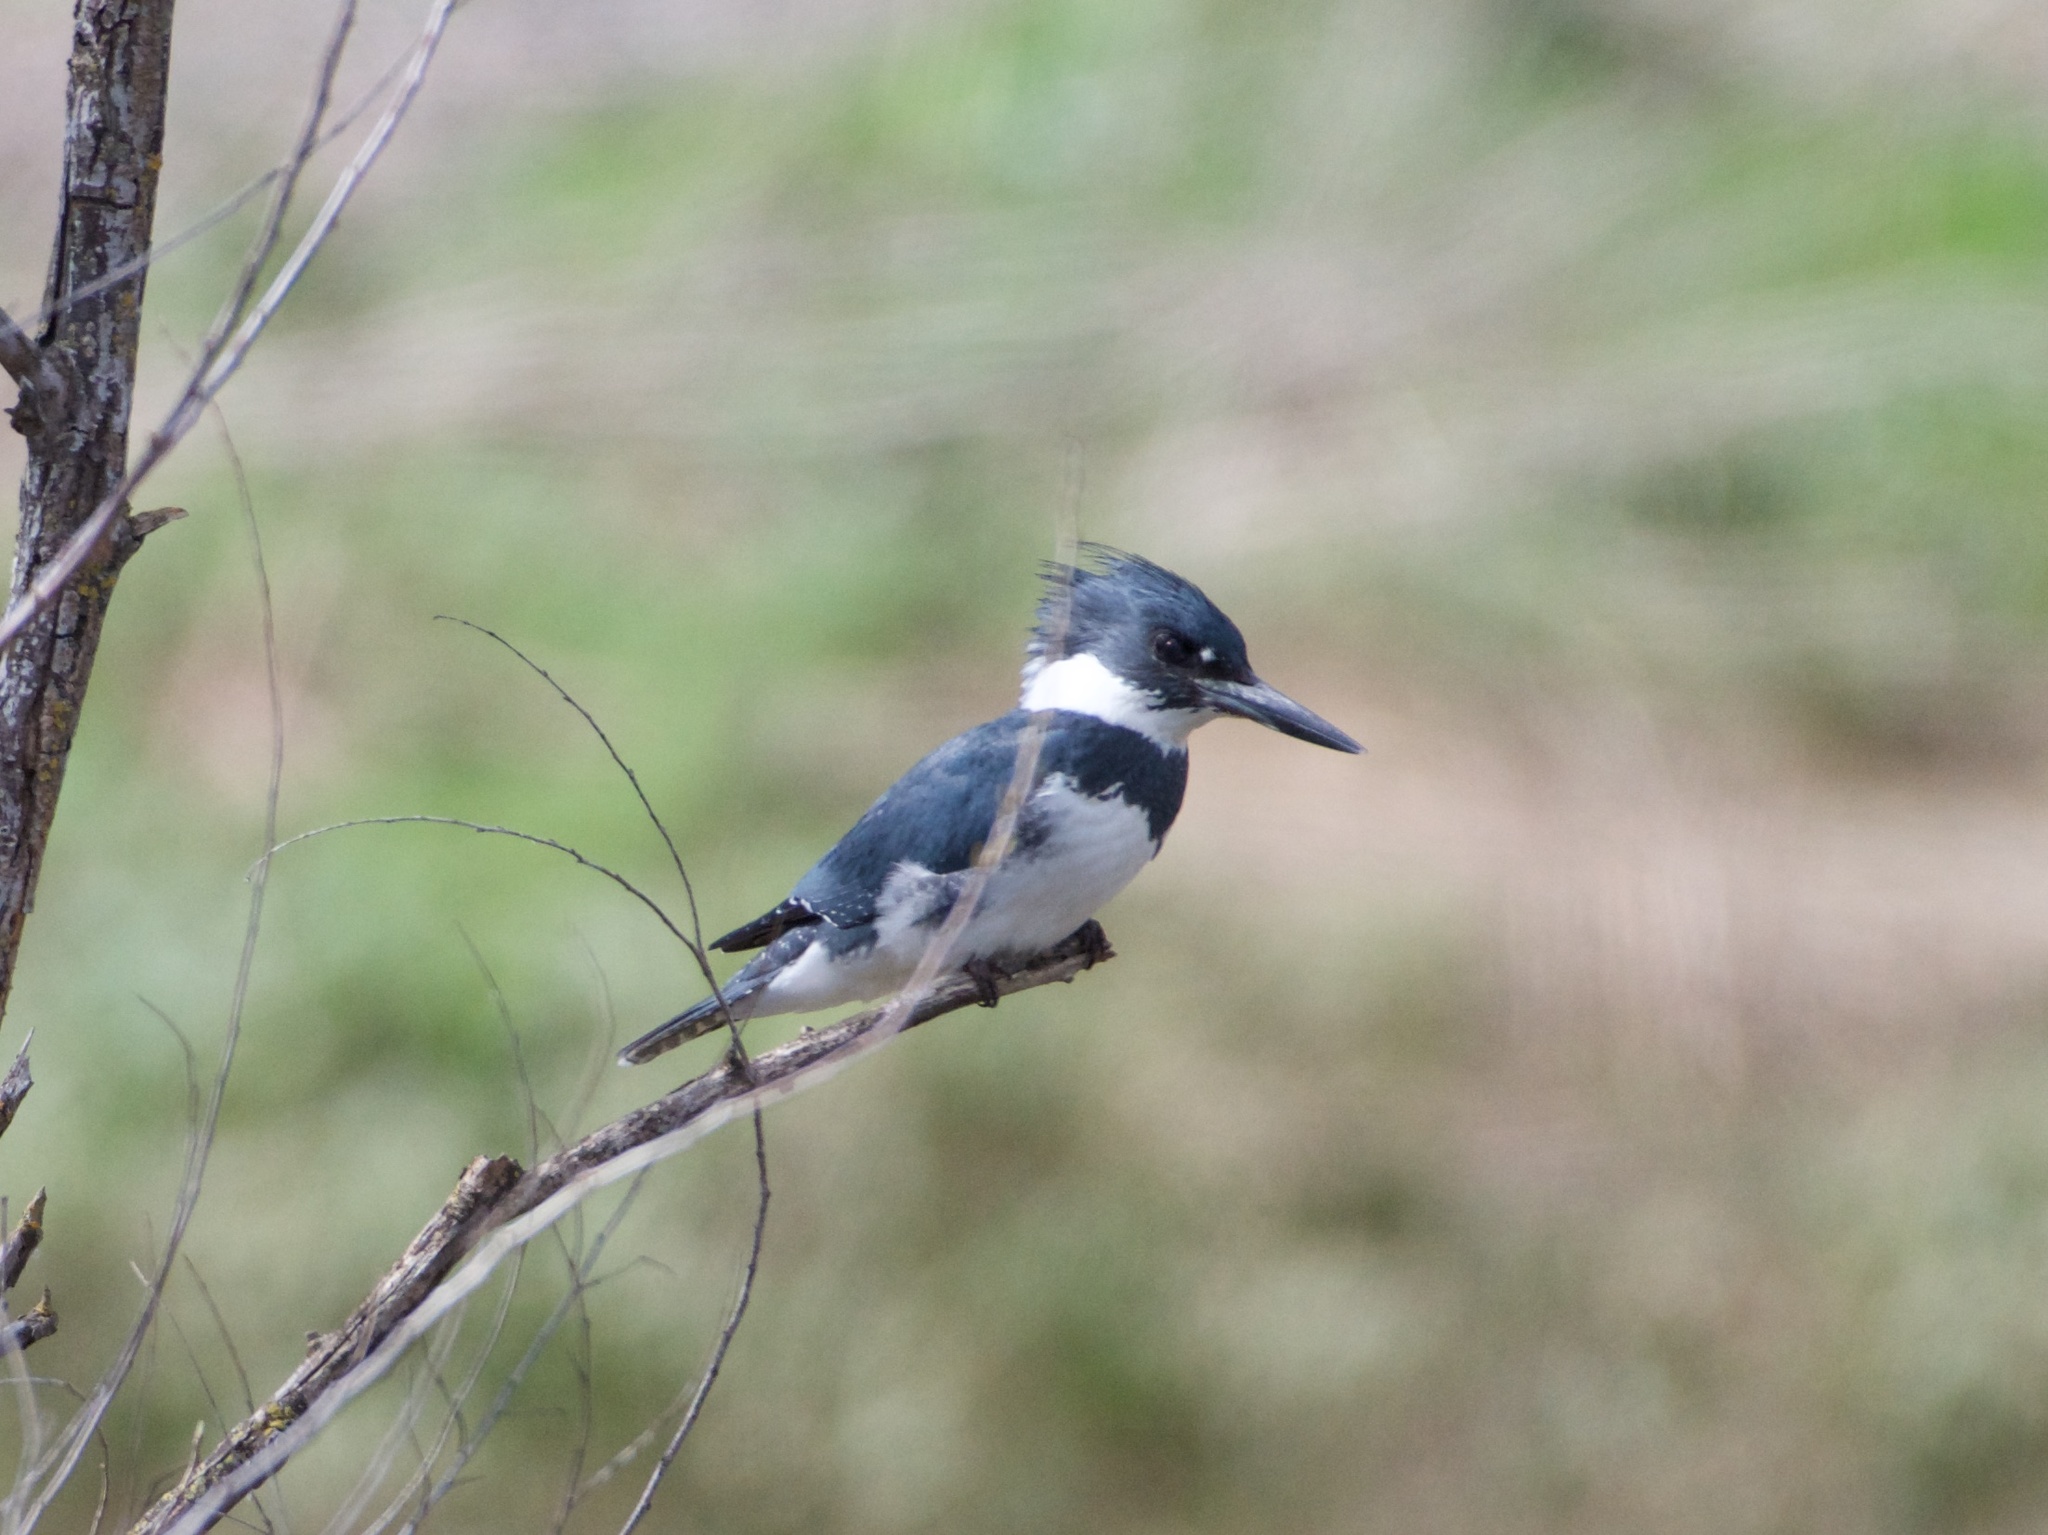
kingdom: Animalia
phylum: Chordata
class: Aves
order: Coraciiformes
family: Alcedinidae
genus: Megaceryle
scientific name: Megaceryle alcyon
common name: Belted kingfisher
